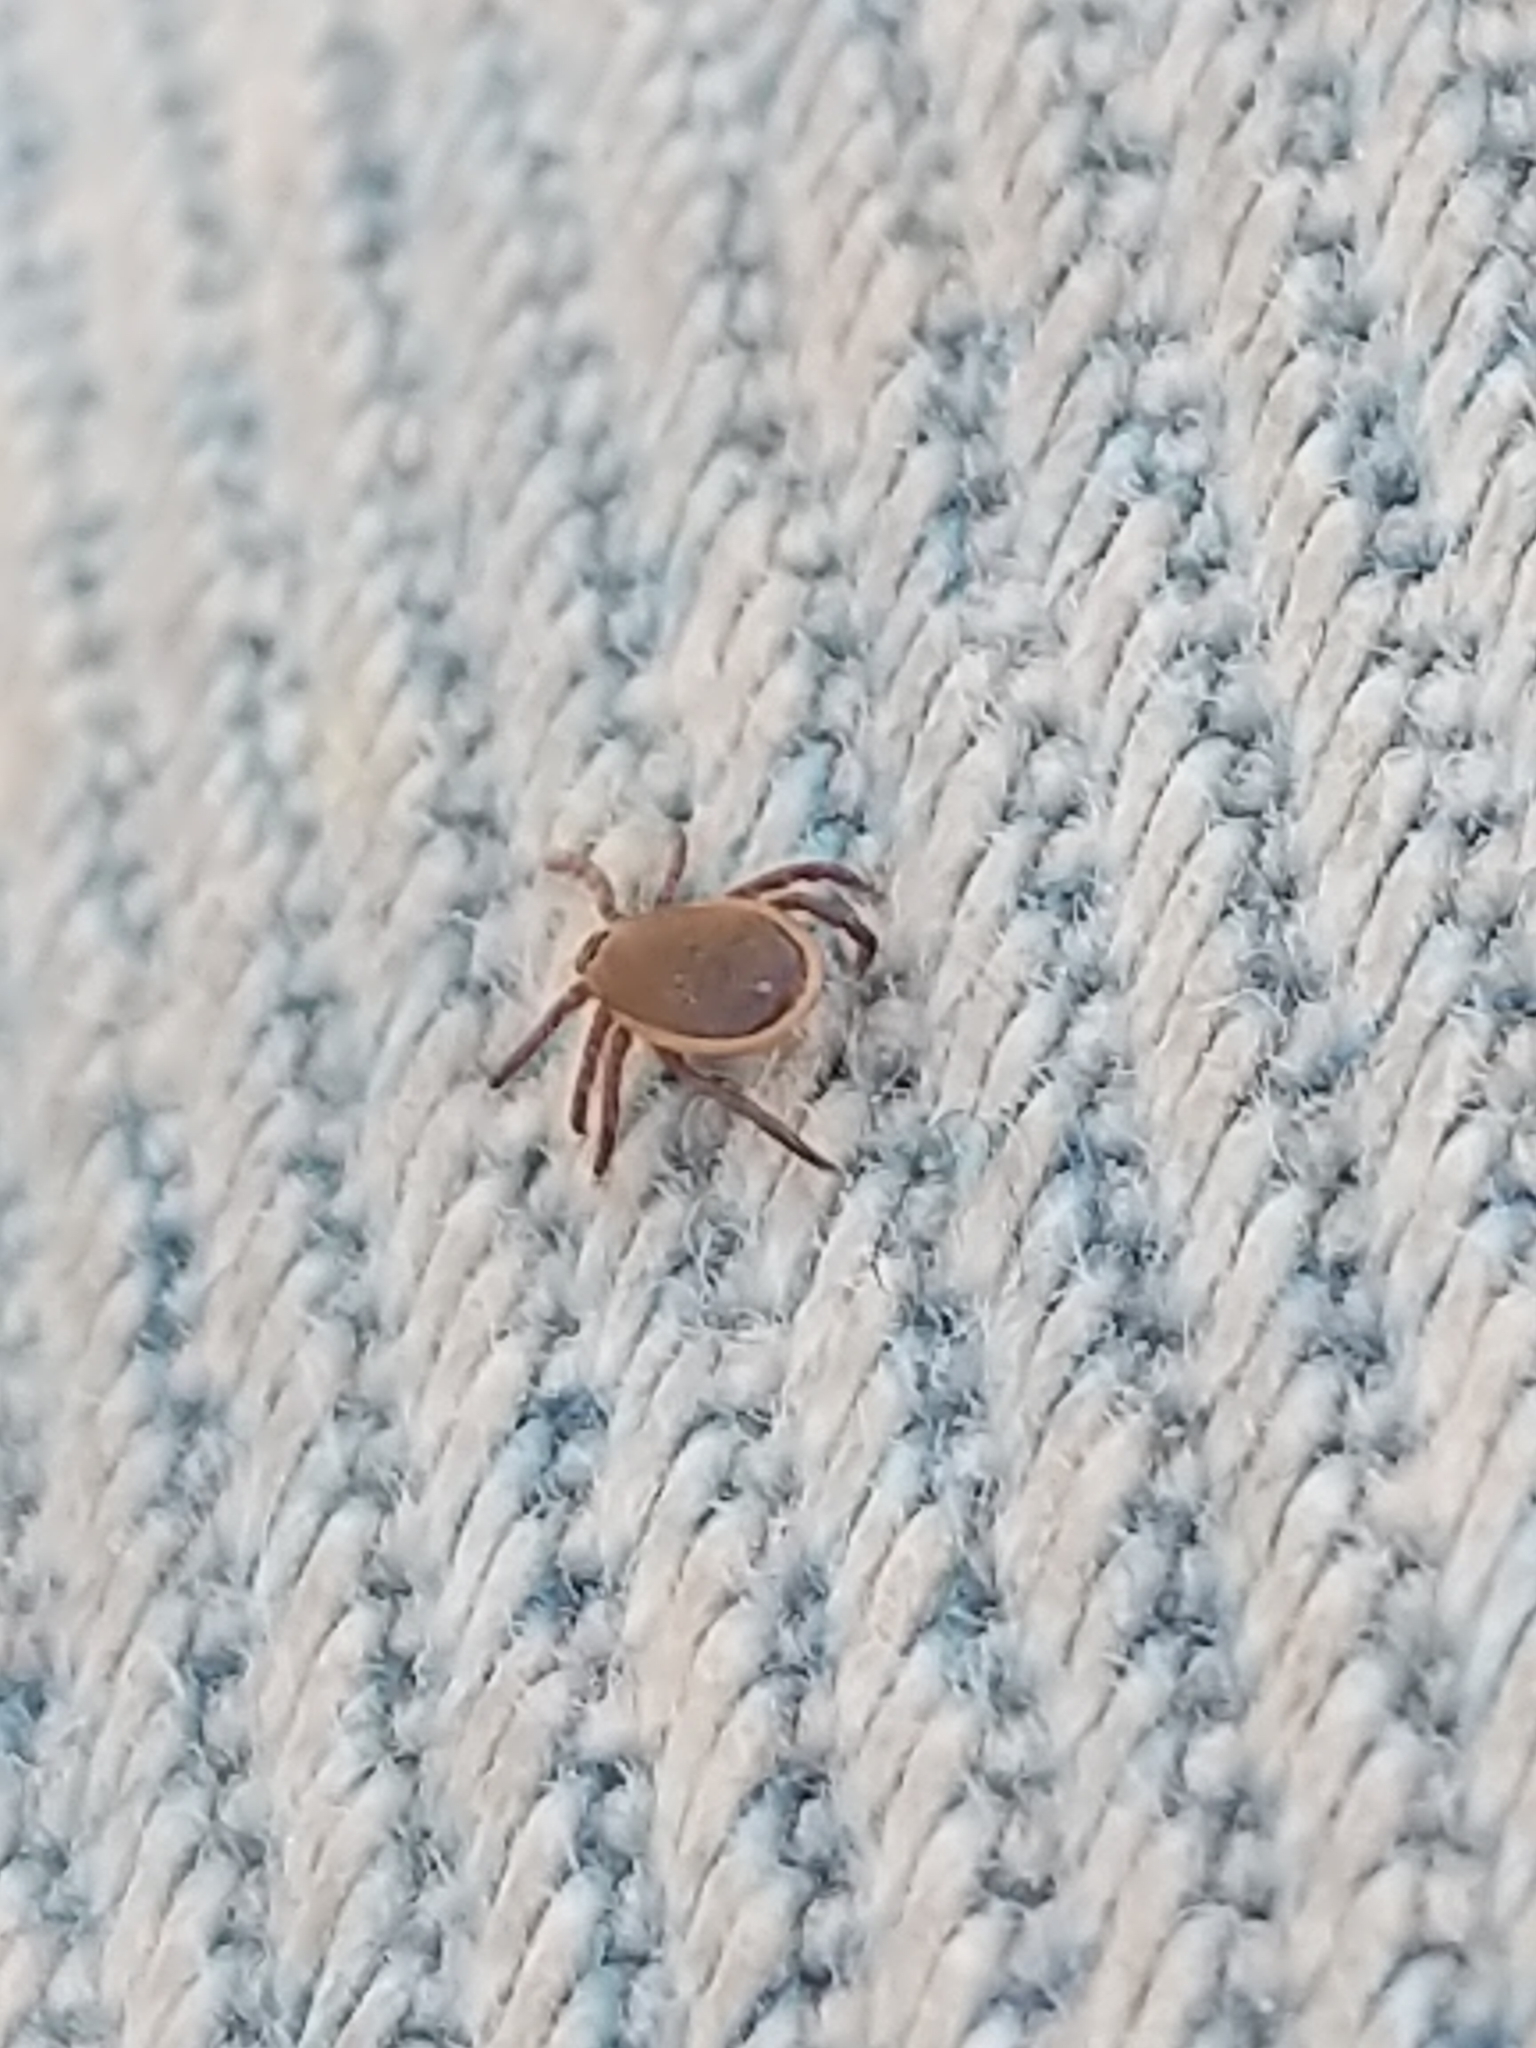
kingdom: Animalia
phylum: Arthropoda
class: Arachnida
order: Ixodida
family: Ixodidae
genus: Ixodes
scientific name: Ixodes scapularis
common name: Black legged tick
